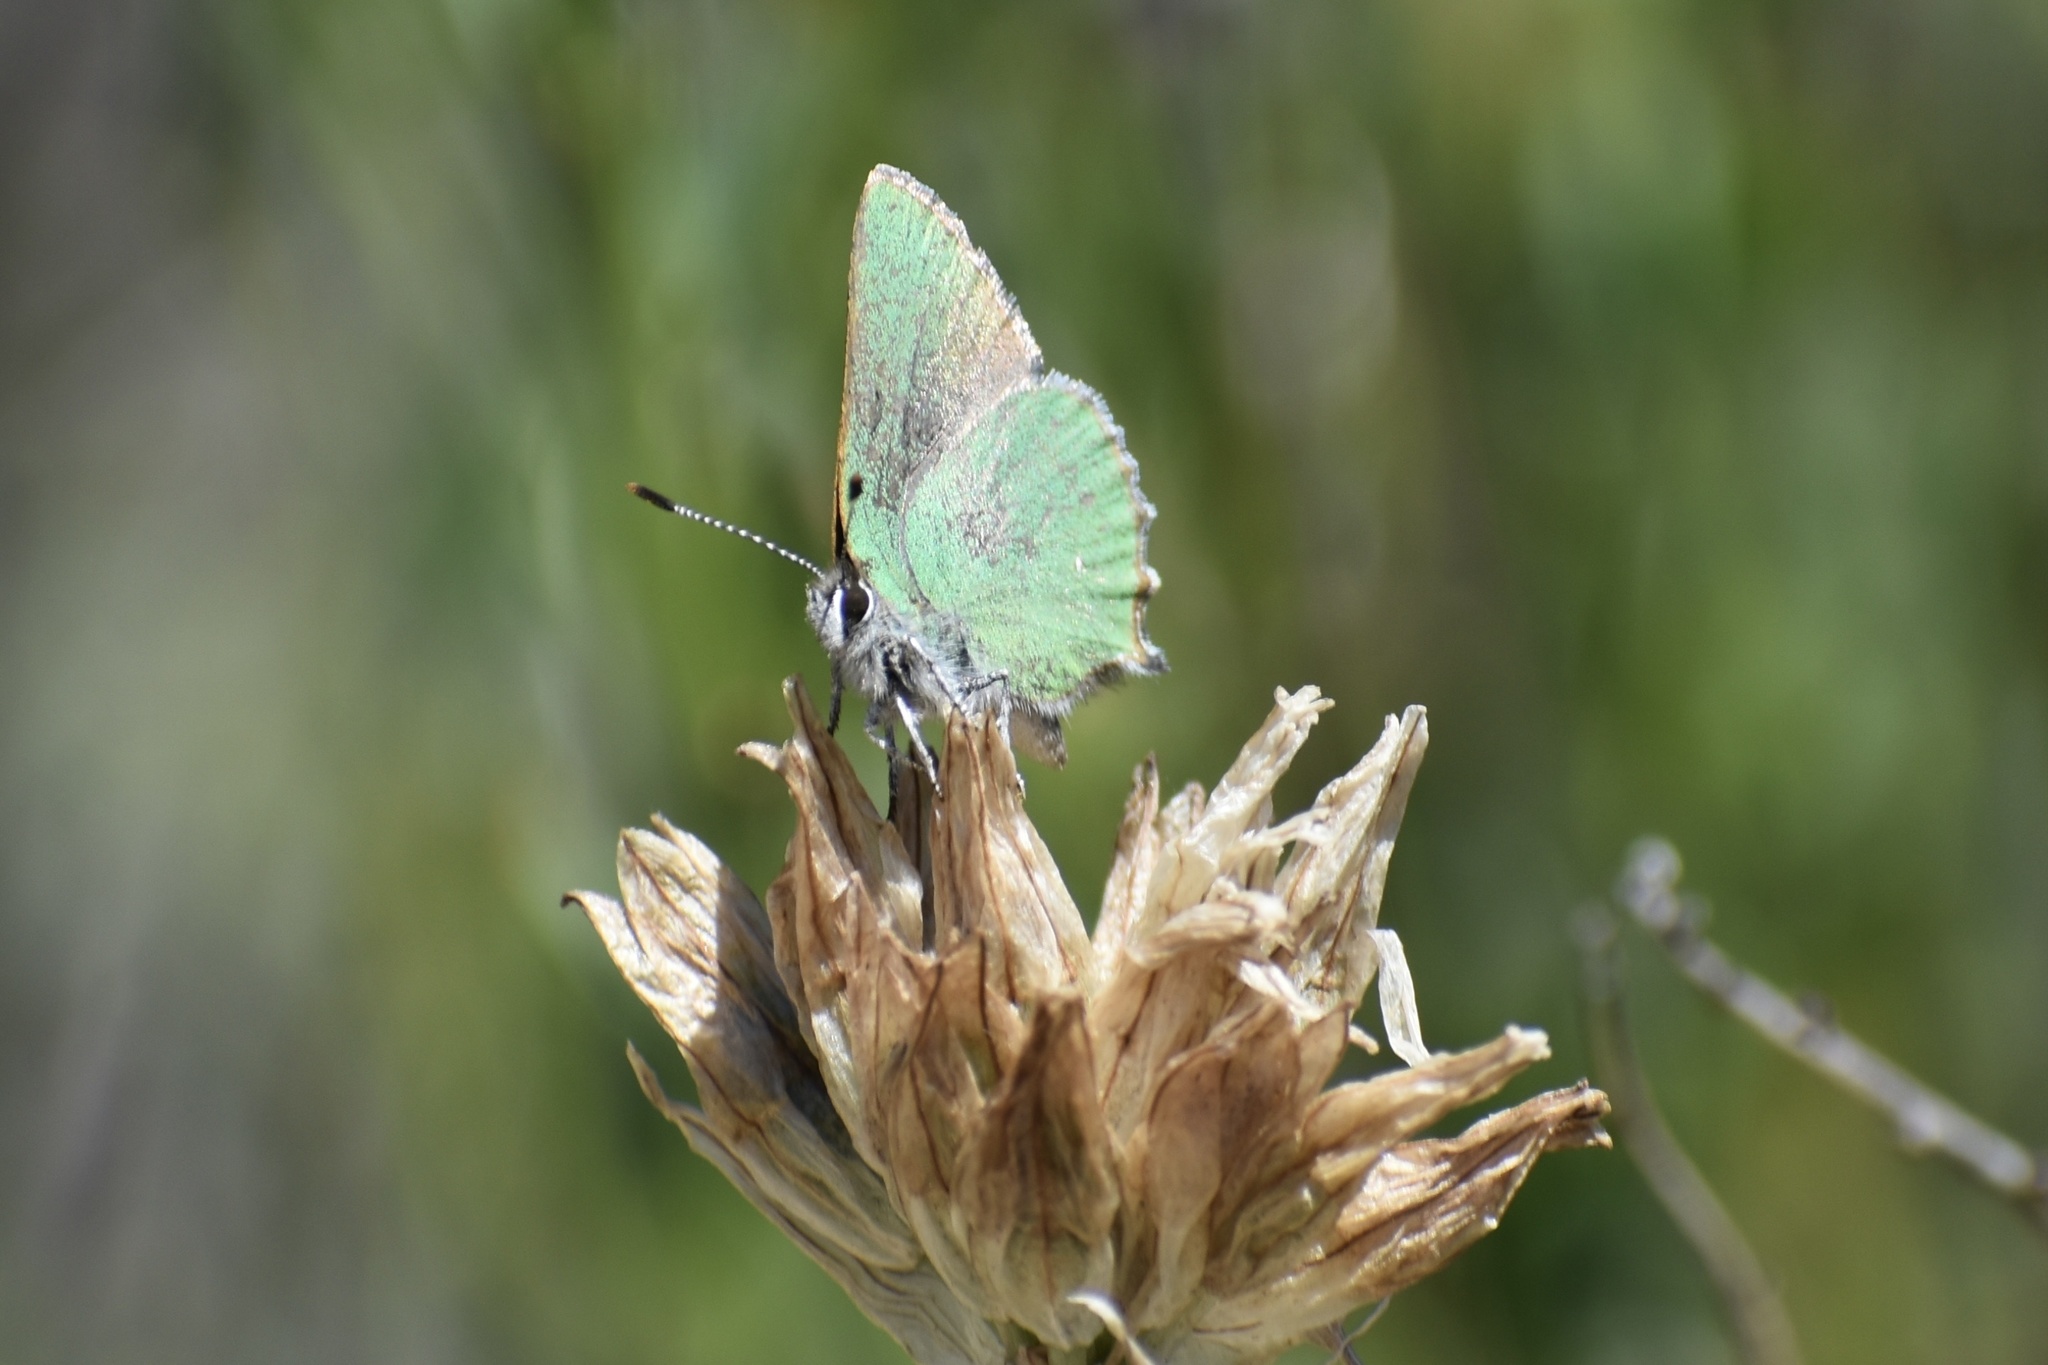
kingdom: Animalia
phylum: Arthropoda
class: Insecta
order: Lepidoptera
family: Lycaenidae
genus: Callophrys
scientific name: Callophrys dumetorum
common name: Bramble hairstreak
